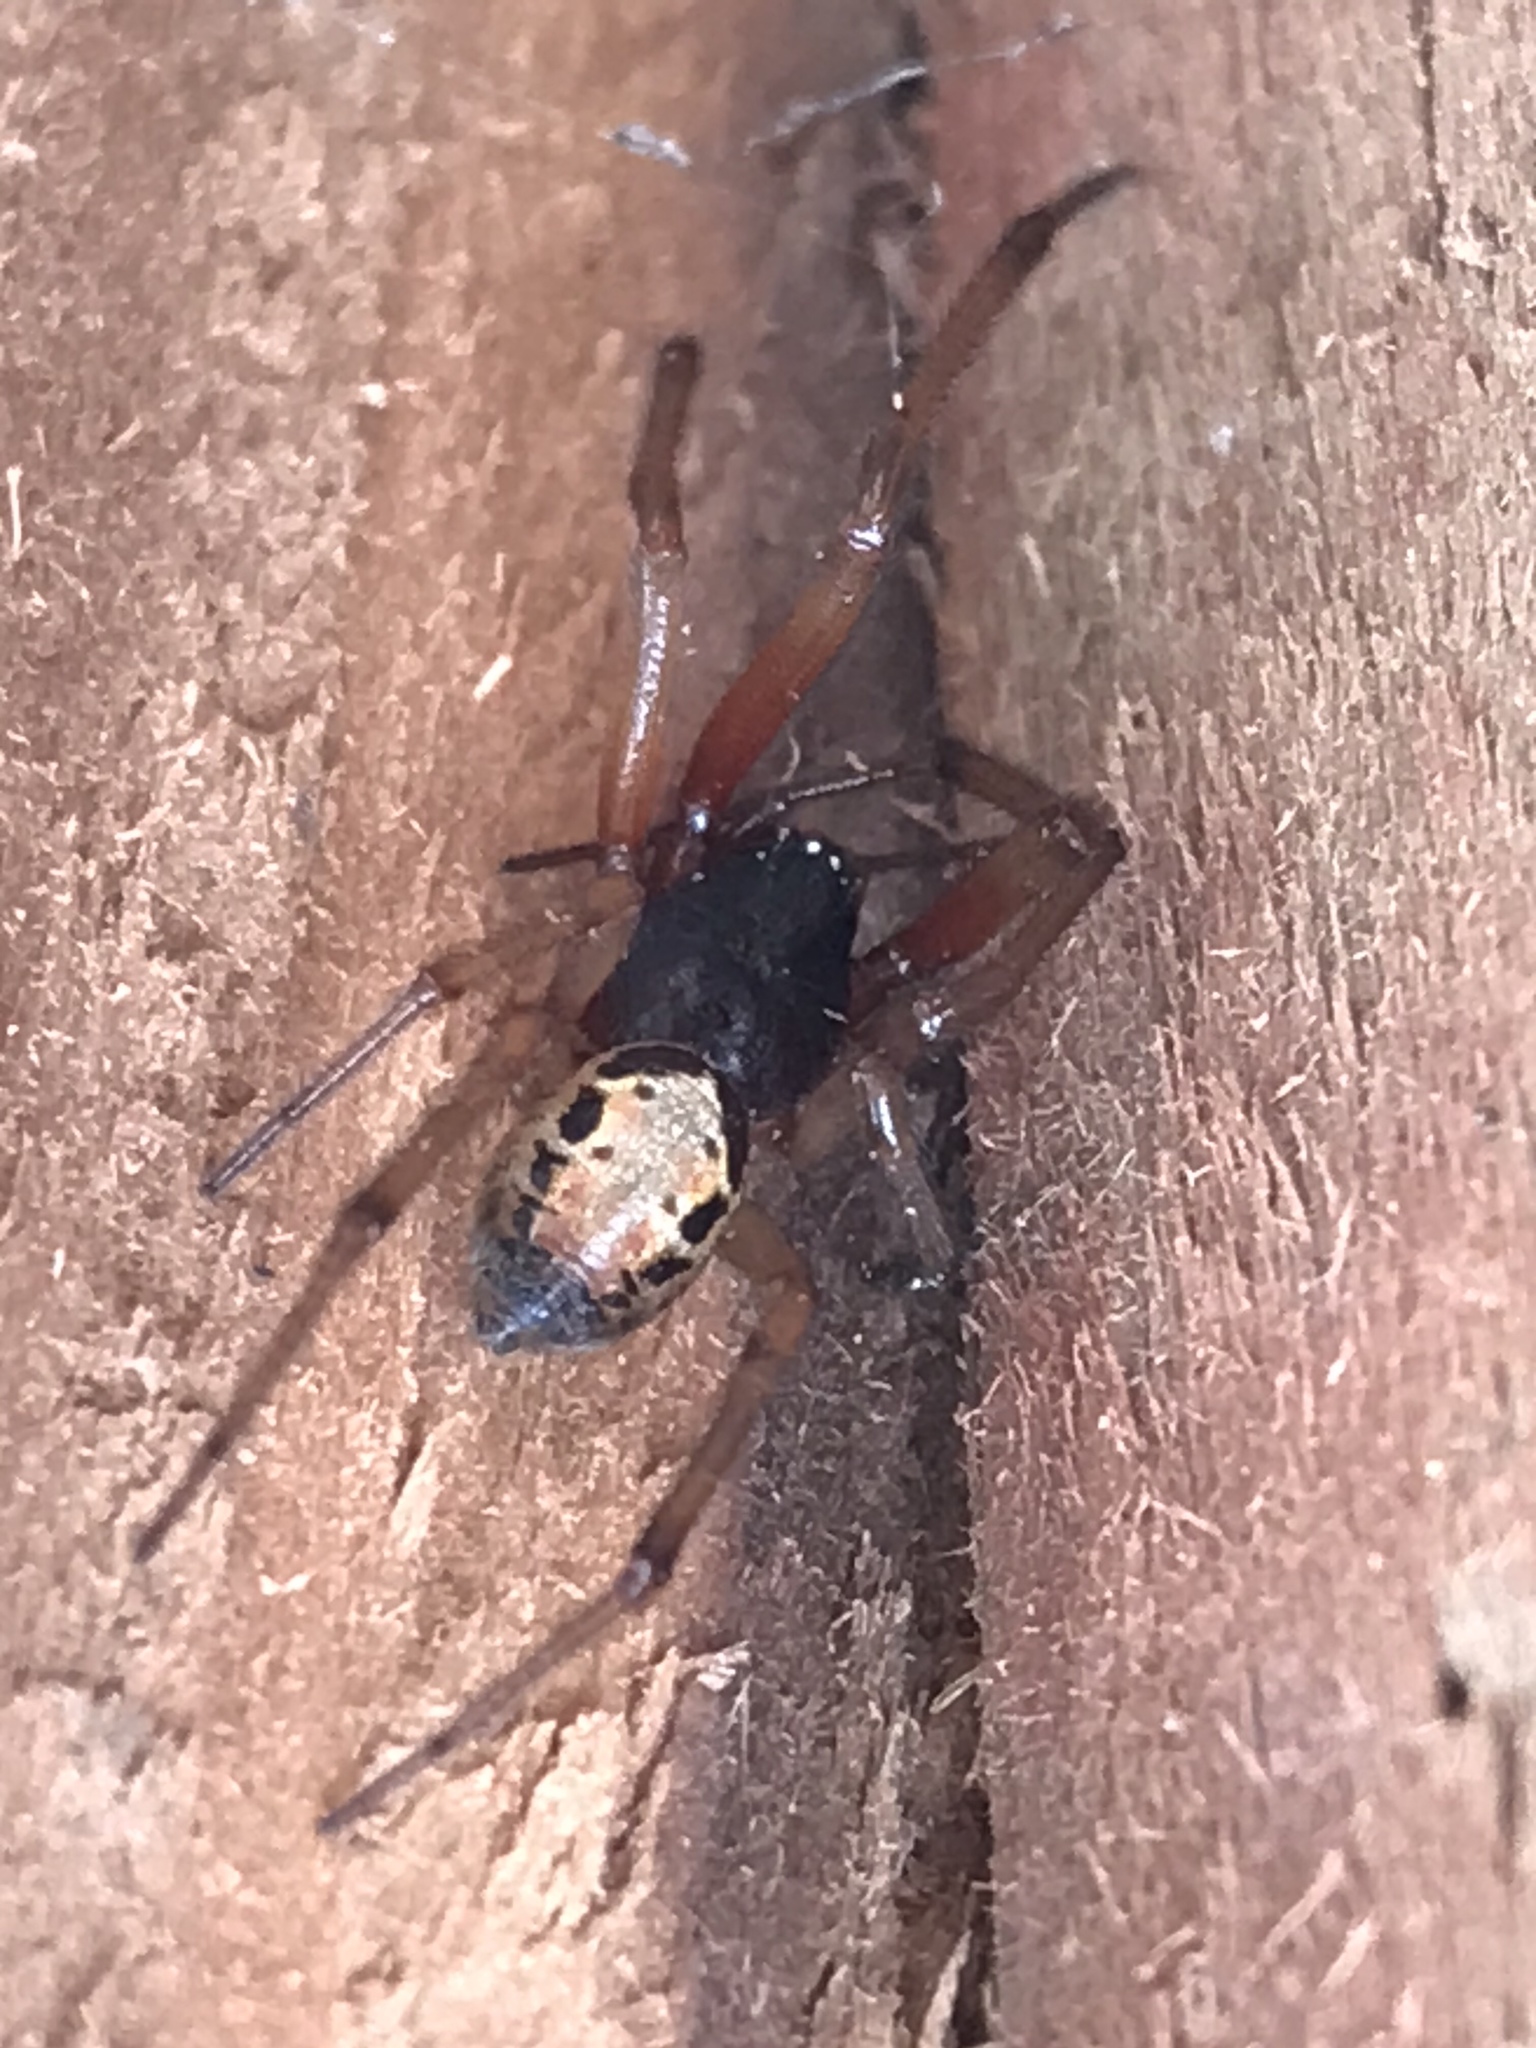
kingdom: Animalia
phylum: Arthropoda
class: Arachnida
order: Araneae
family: Theridiidae
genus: Steatoda
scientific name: Steatoda nobilis
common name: Cobweb weaver
